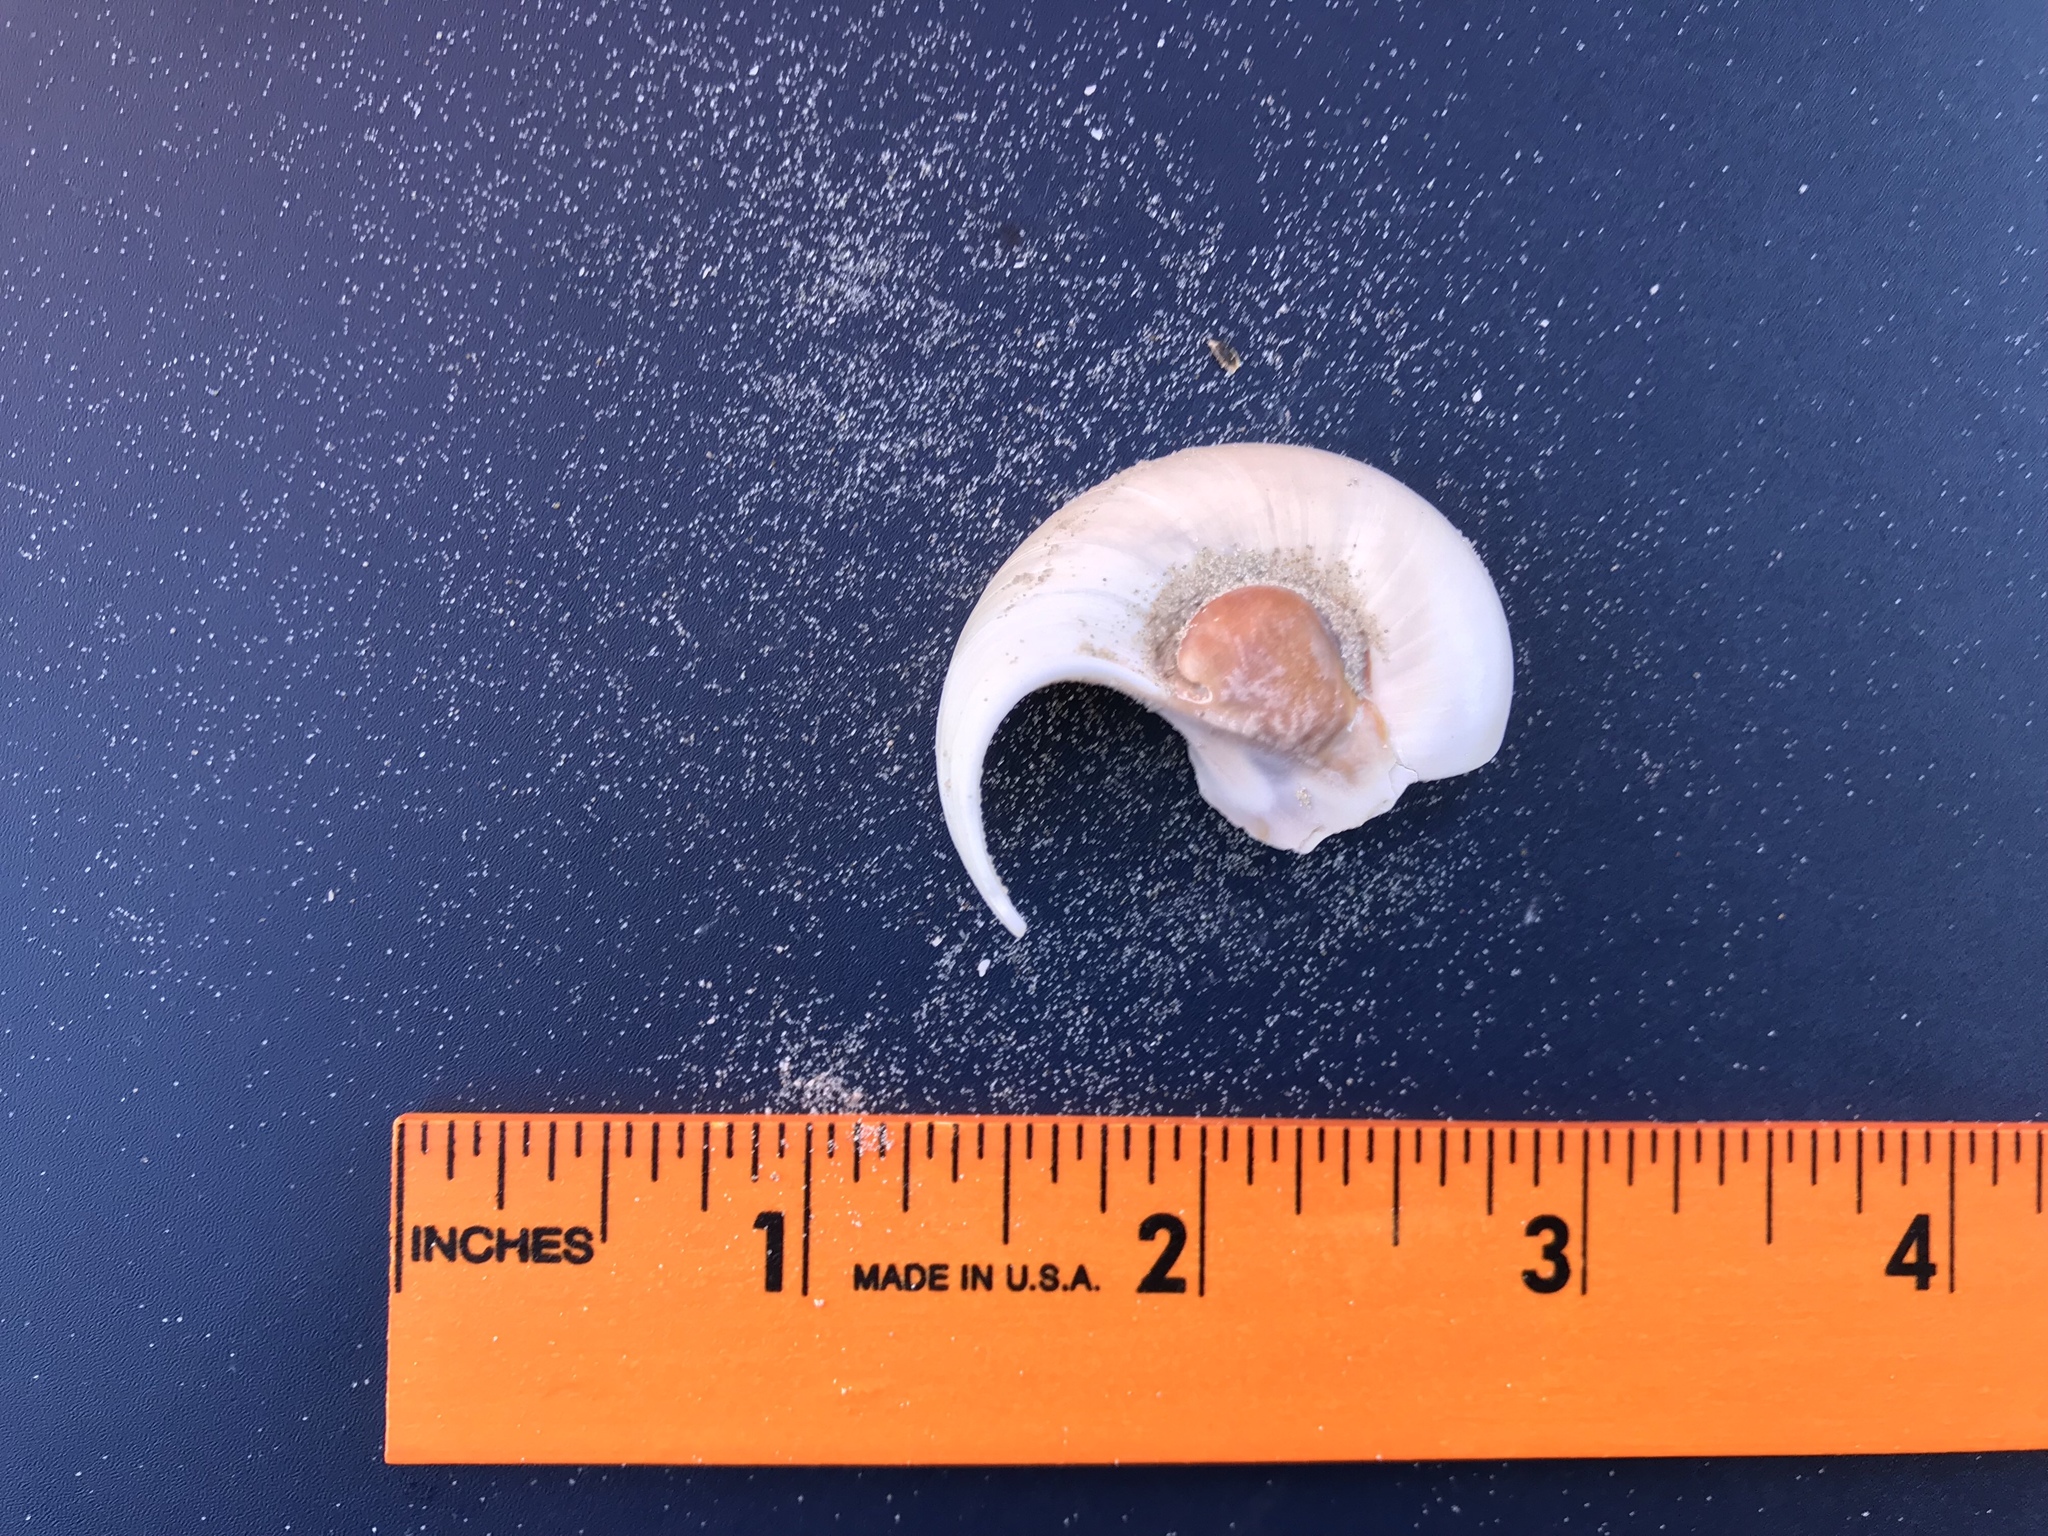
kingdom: Animalia
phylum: Mollusca
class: Gastropoda
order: Littorinimorpha
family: Naticidae
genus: Neverita
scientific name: Neverita duplicata
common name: Lobed moonsnail
